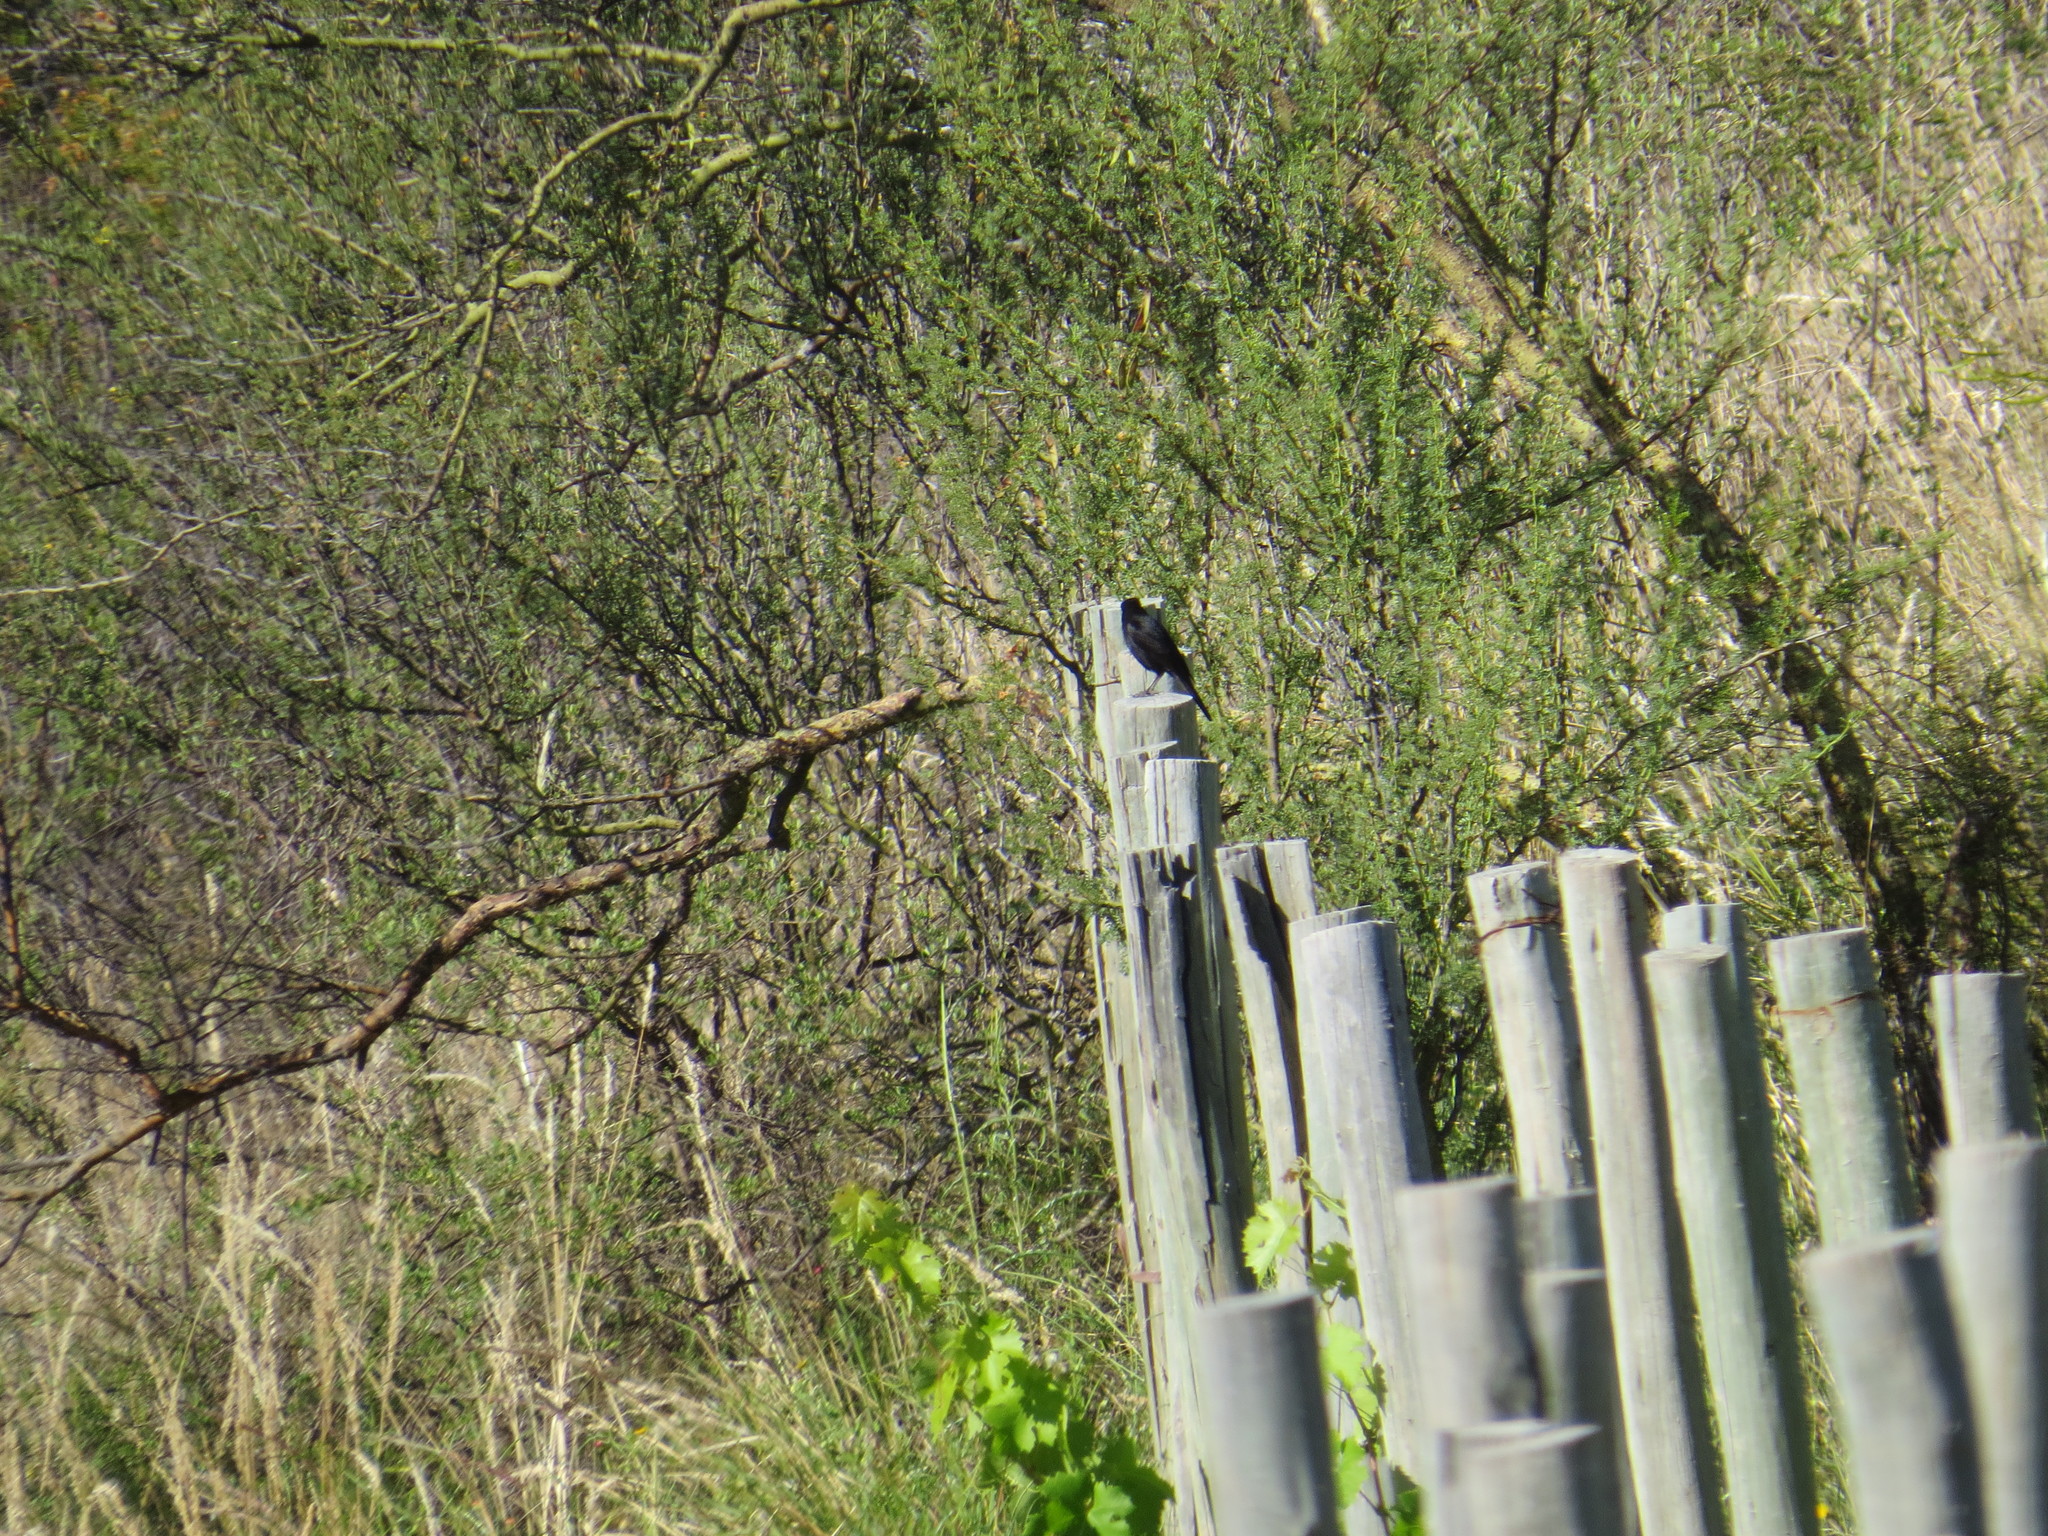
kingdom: Animalia
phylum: Chordata
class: Aves
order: Passeriformes
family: Icteridae
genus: Molothrus
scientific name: Molothrus bonariensis
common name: Shiny cowbird
